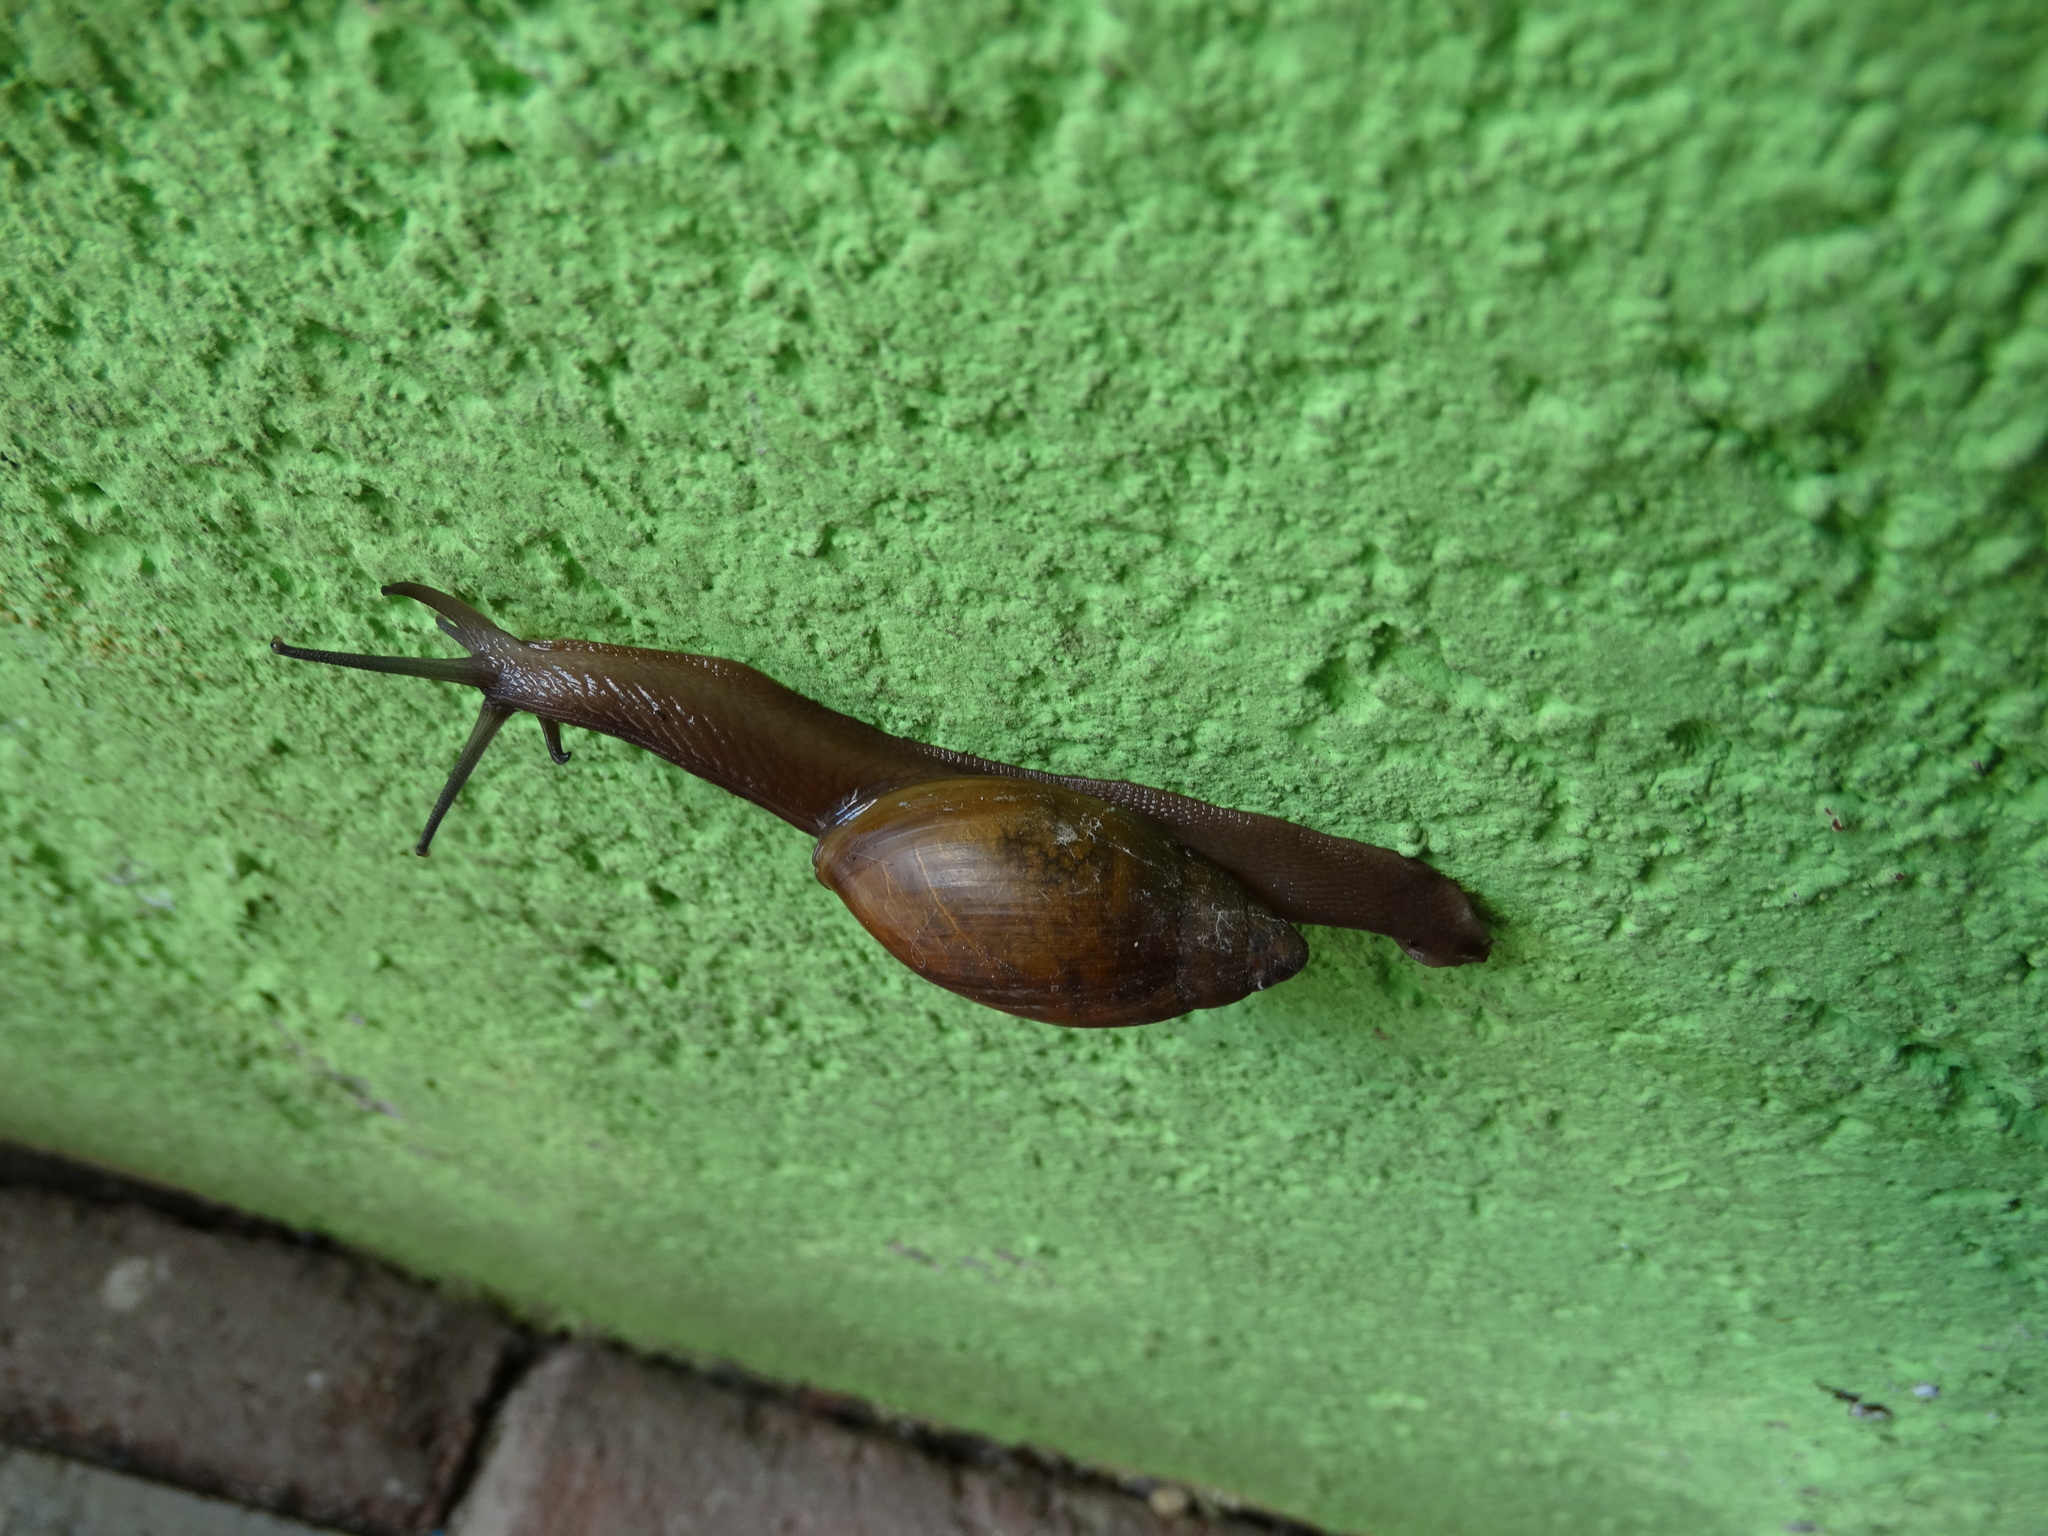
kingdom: Animalia
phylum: Mollusca
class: Gastropoda
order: Stylommatophora
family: Spiraxidae
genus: Euglandina
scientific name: Euglandina
